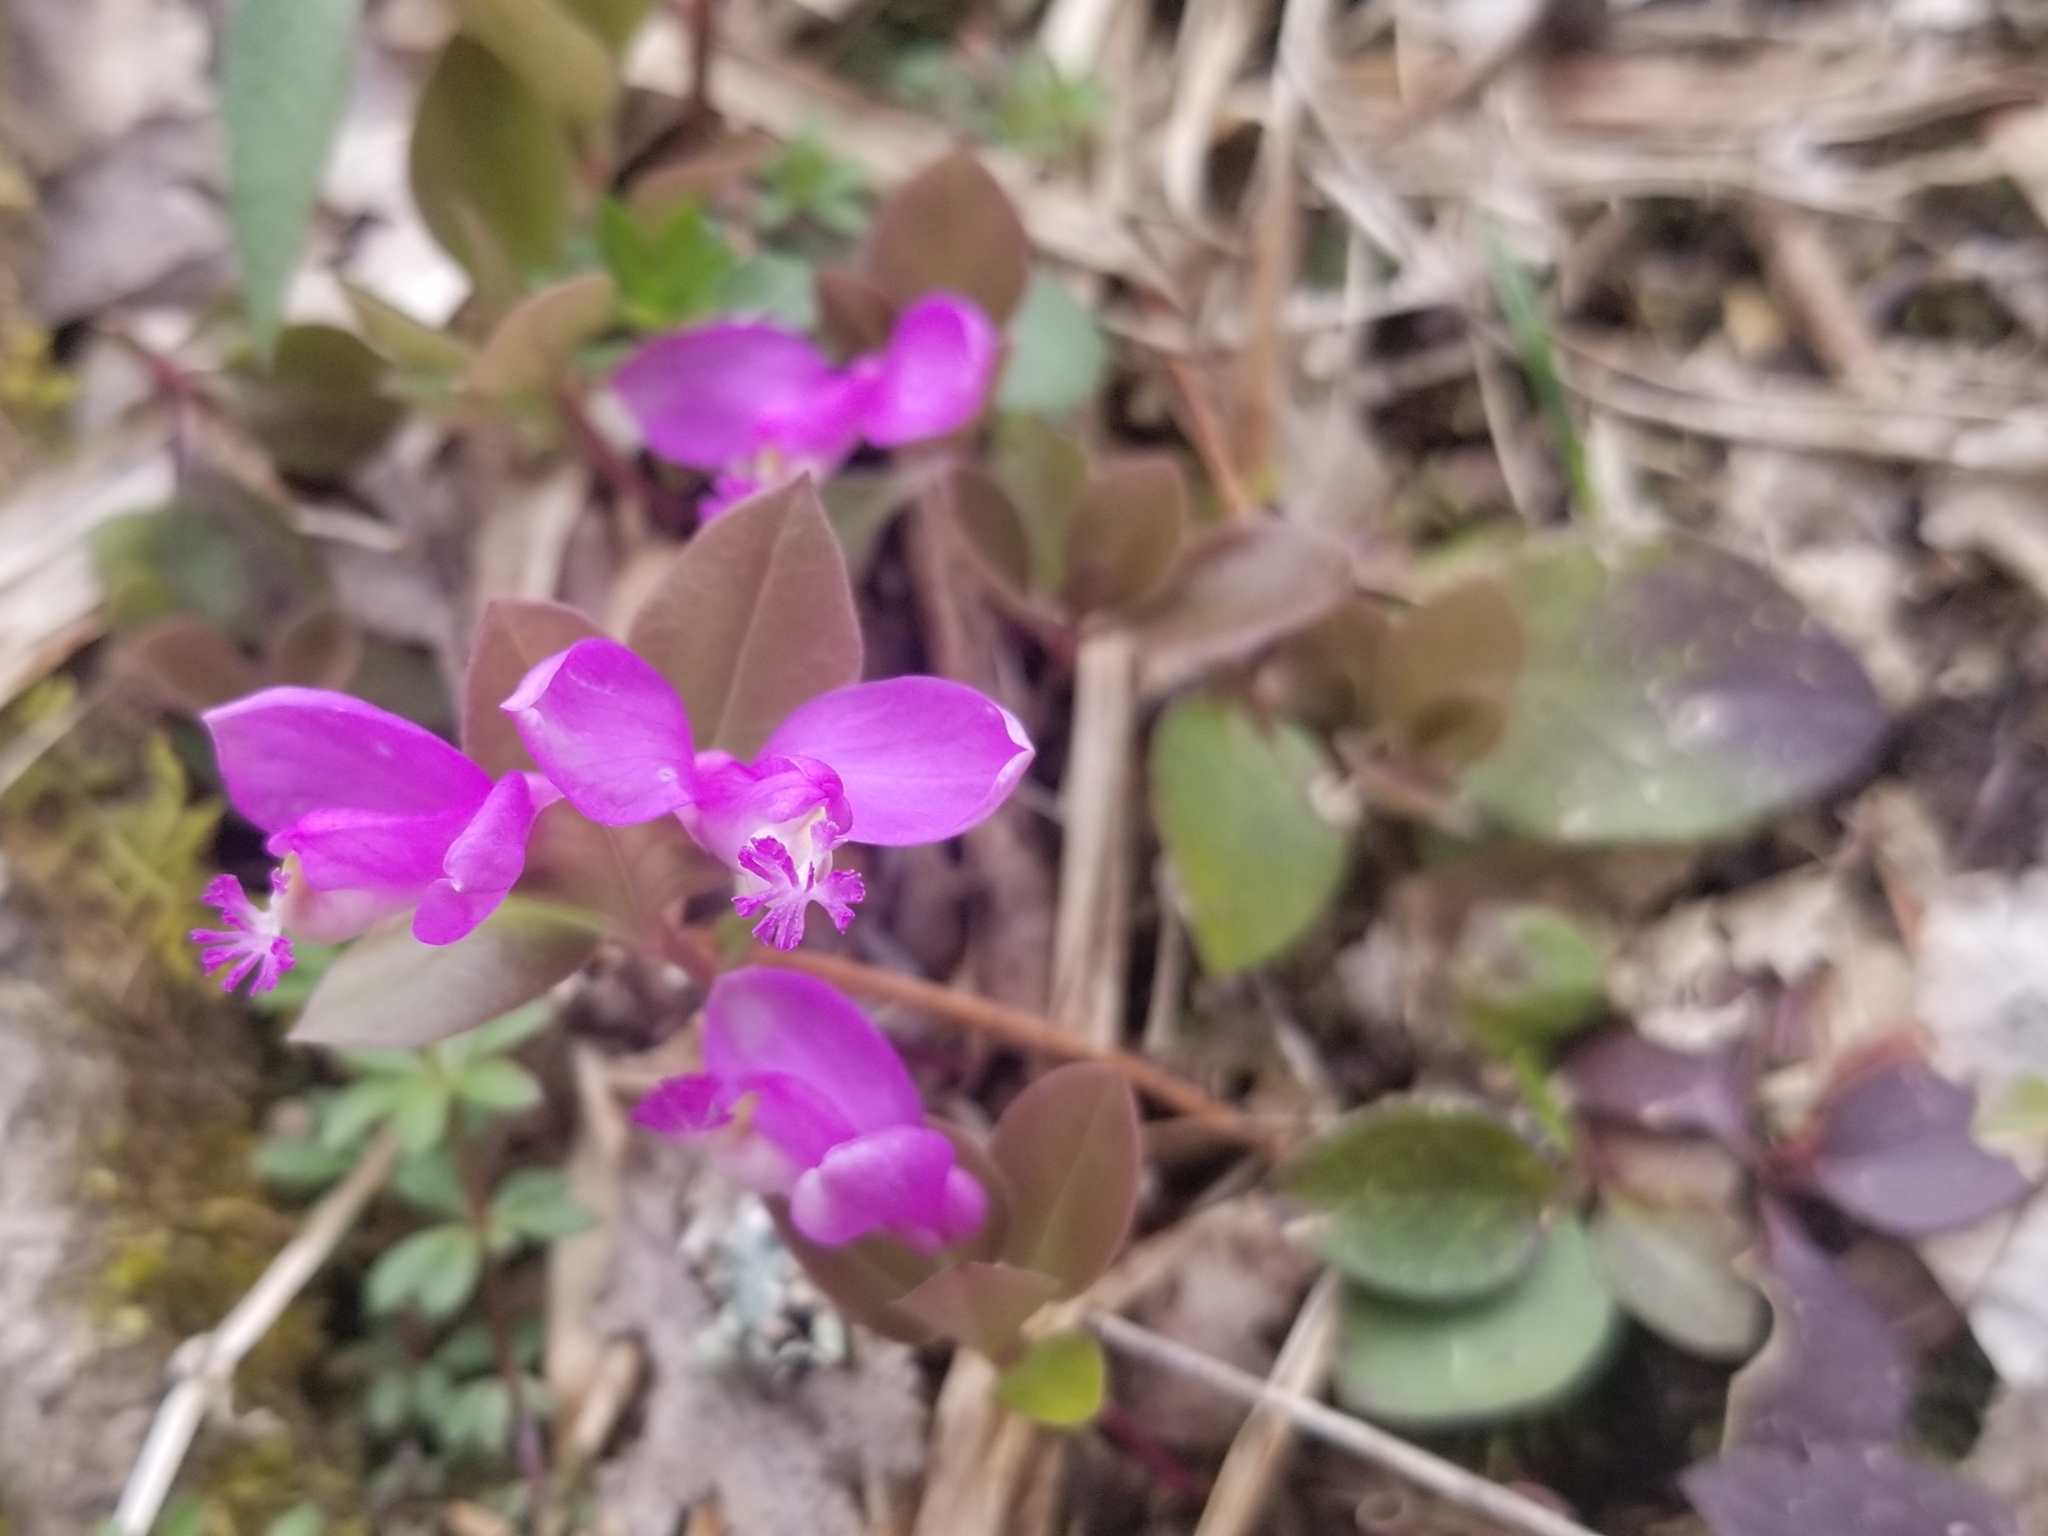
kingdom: Plantae
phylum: Tracheophyta
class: Magnoliopsida
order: Fabales
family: Polygalaceae
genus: Polygaloides
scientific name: Polygaloides paucifolia
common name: Bird-on-the-wing
